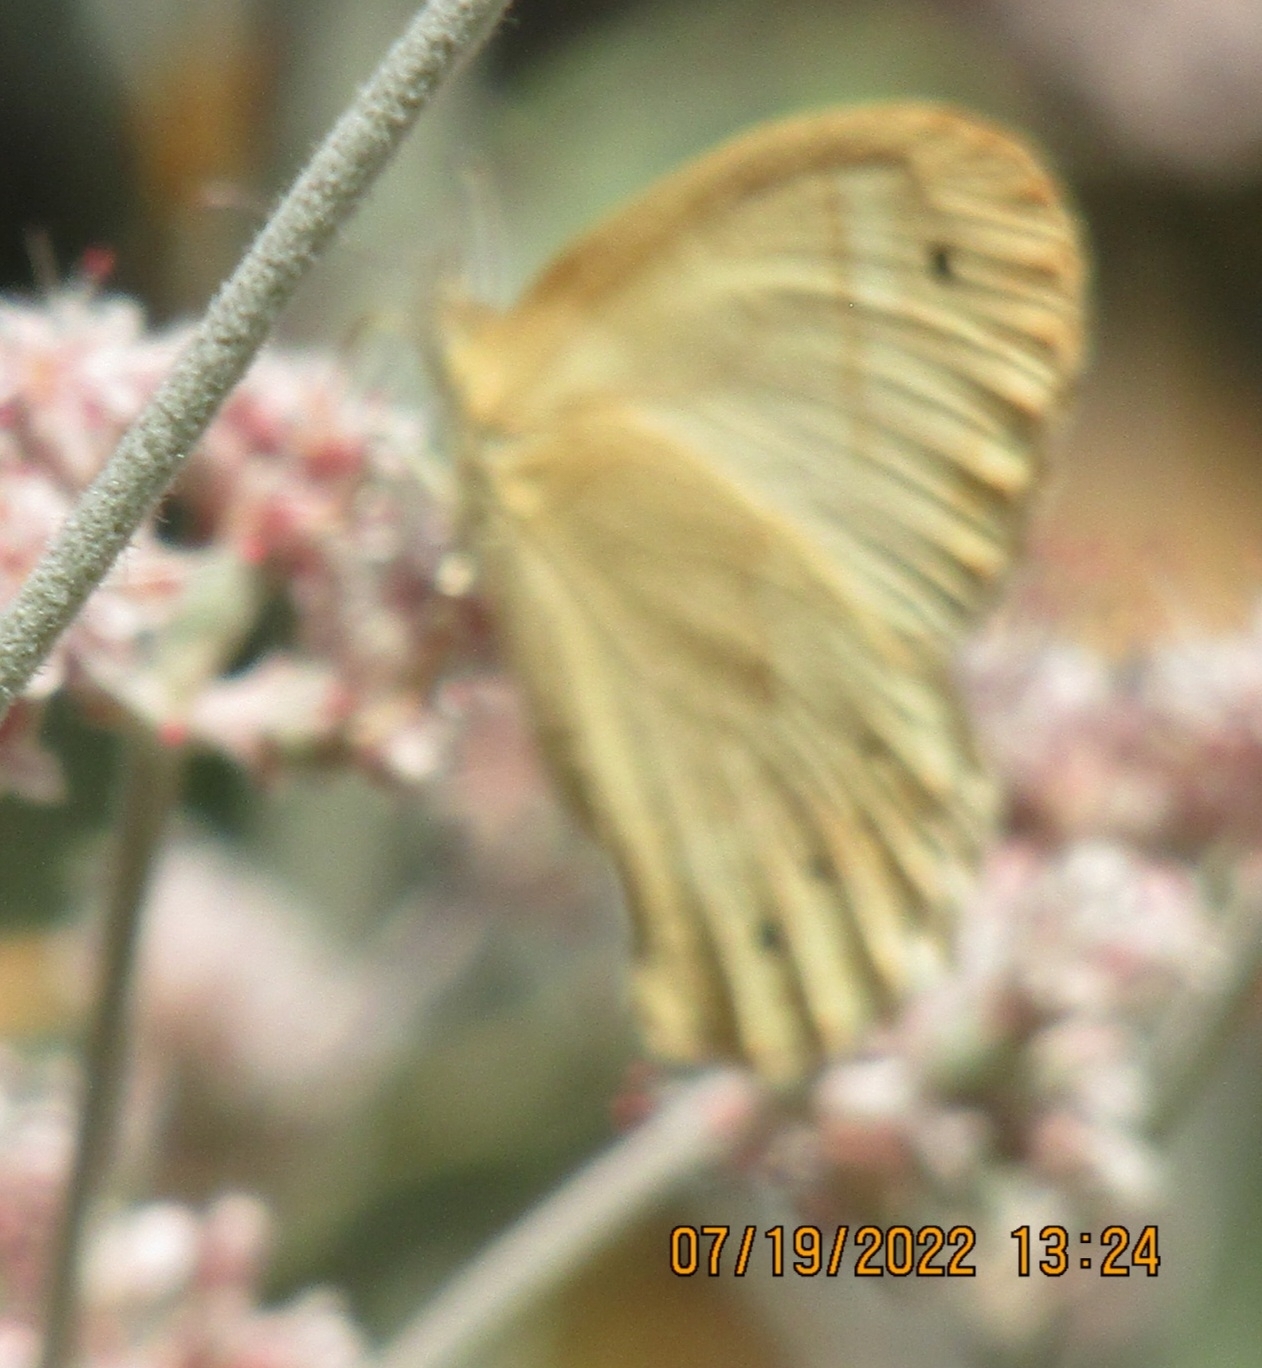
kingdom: Animalia
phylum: Arthropoda
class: Insecta
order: Lepidoptera
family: Nymphalidae
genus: Coenonympha
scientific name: Coenonympha california
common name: Common ringlet
